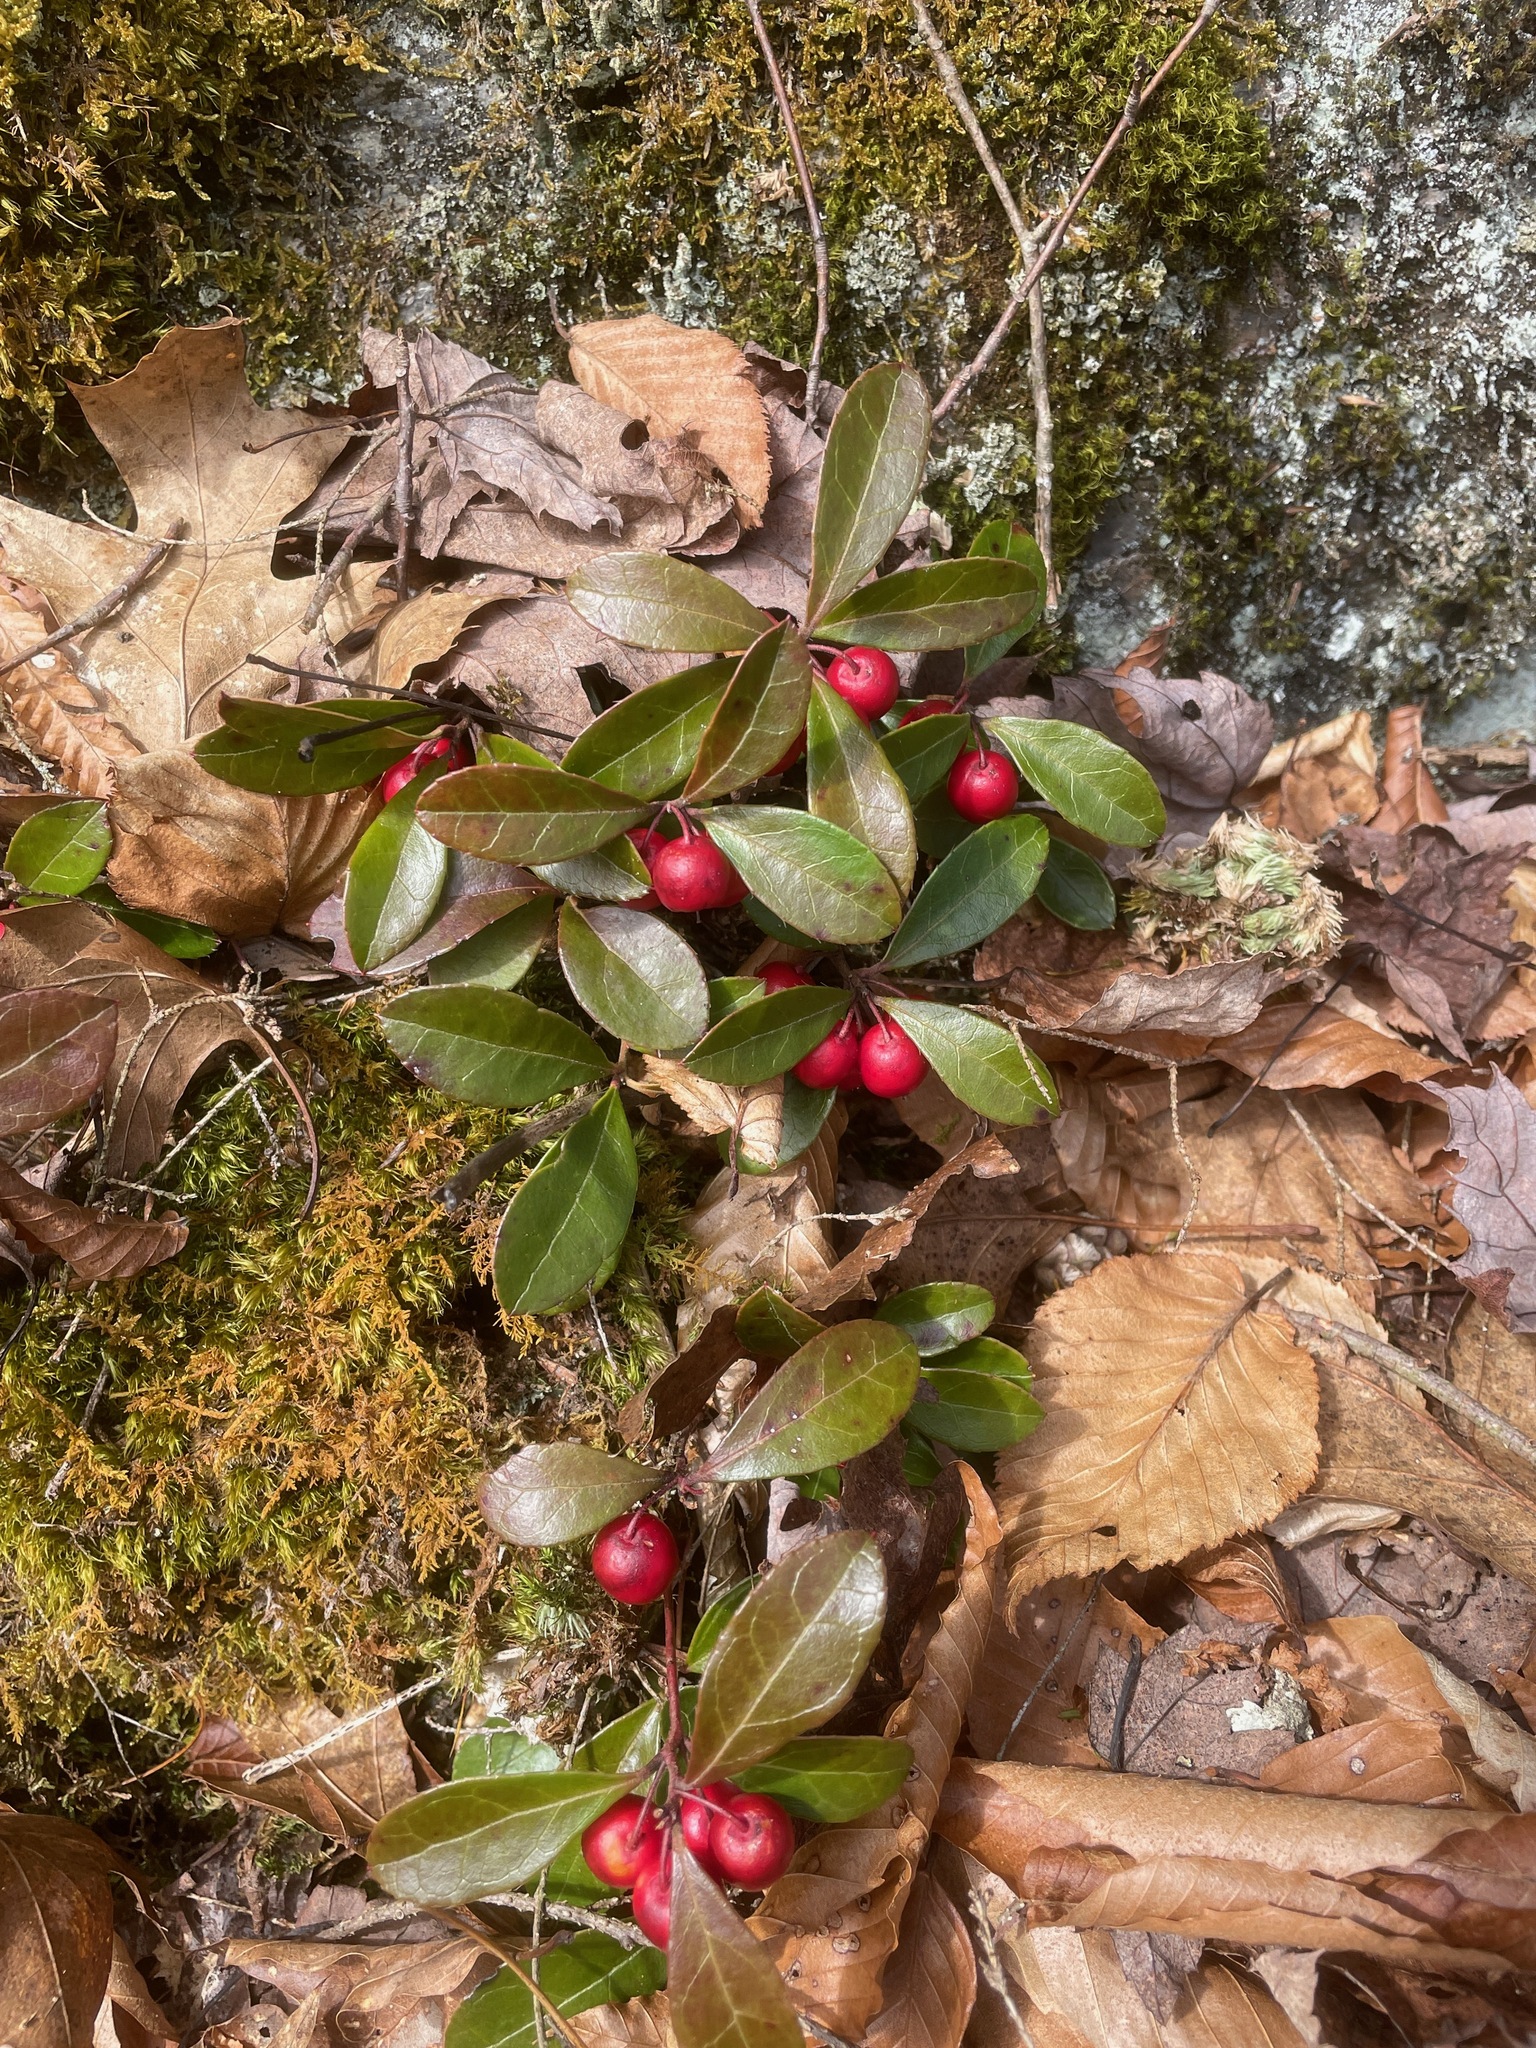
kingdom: Plantae
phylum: Tracheophyta
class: Magnoliopsida
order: Ericales
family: Ericaceae
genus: Gaultheria
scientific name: Gaultheria procumbens
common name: Checkerberry
